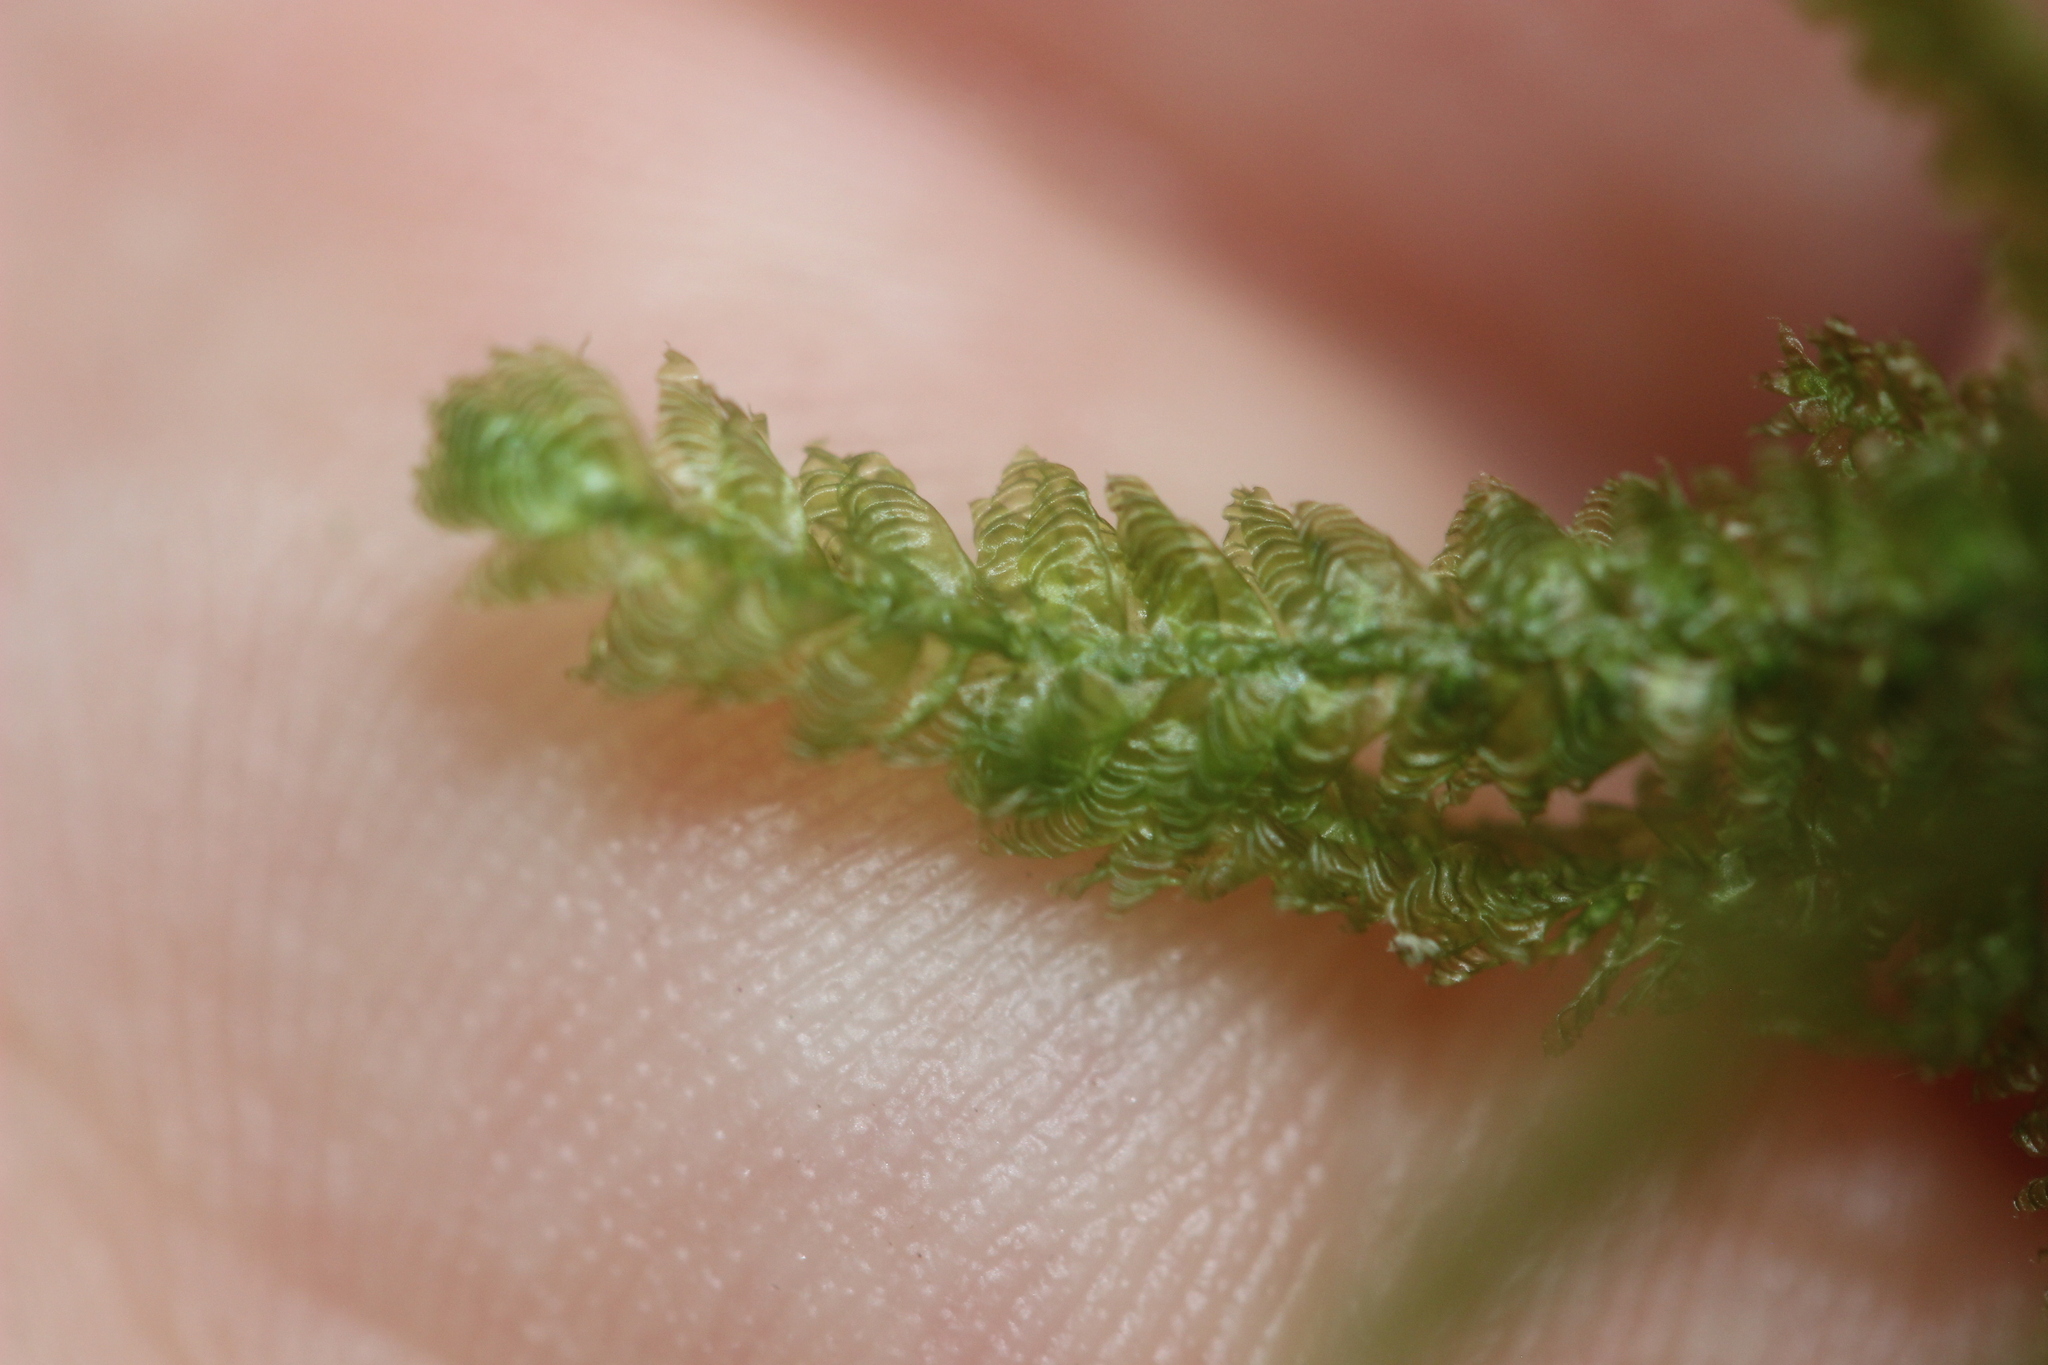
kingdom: Plantae
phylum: Bryophyta
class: Bryopsida
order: Hypnales
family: Neckeraceae
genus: Alleniella
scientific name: Alleniella hymenodonta
